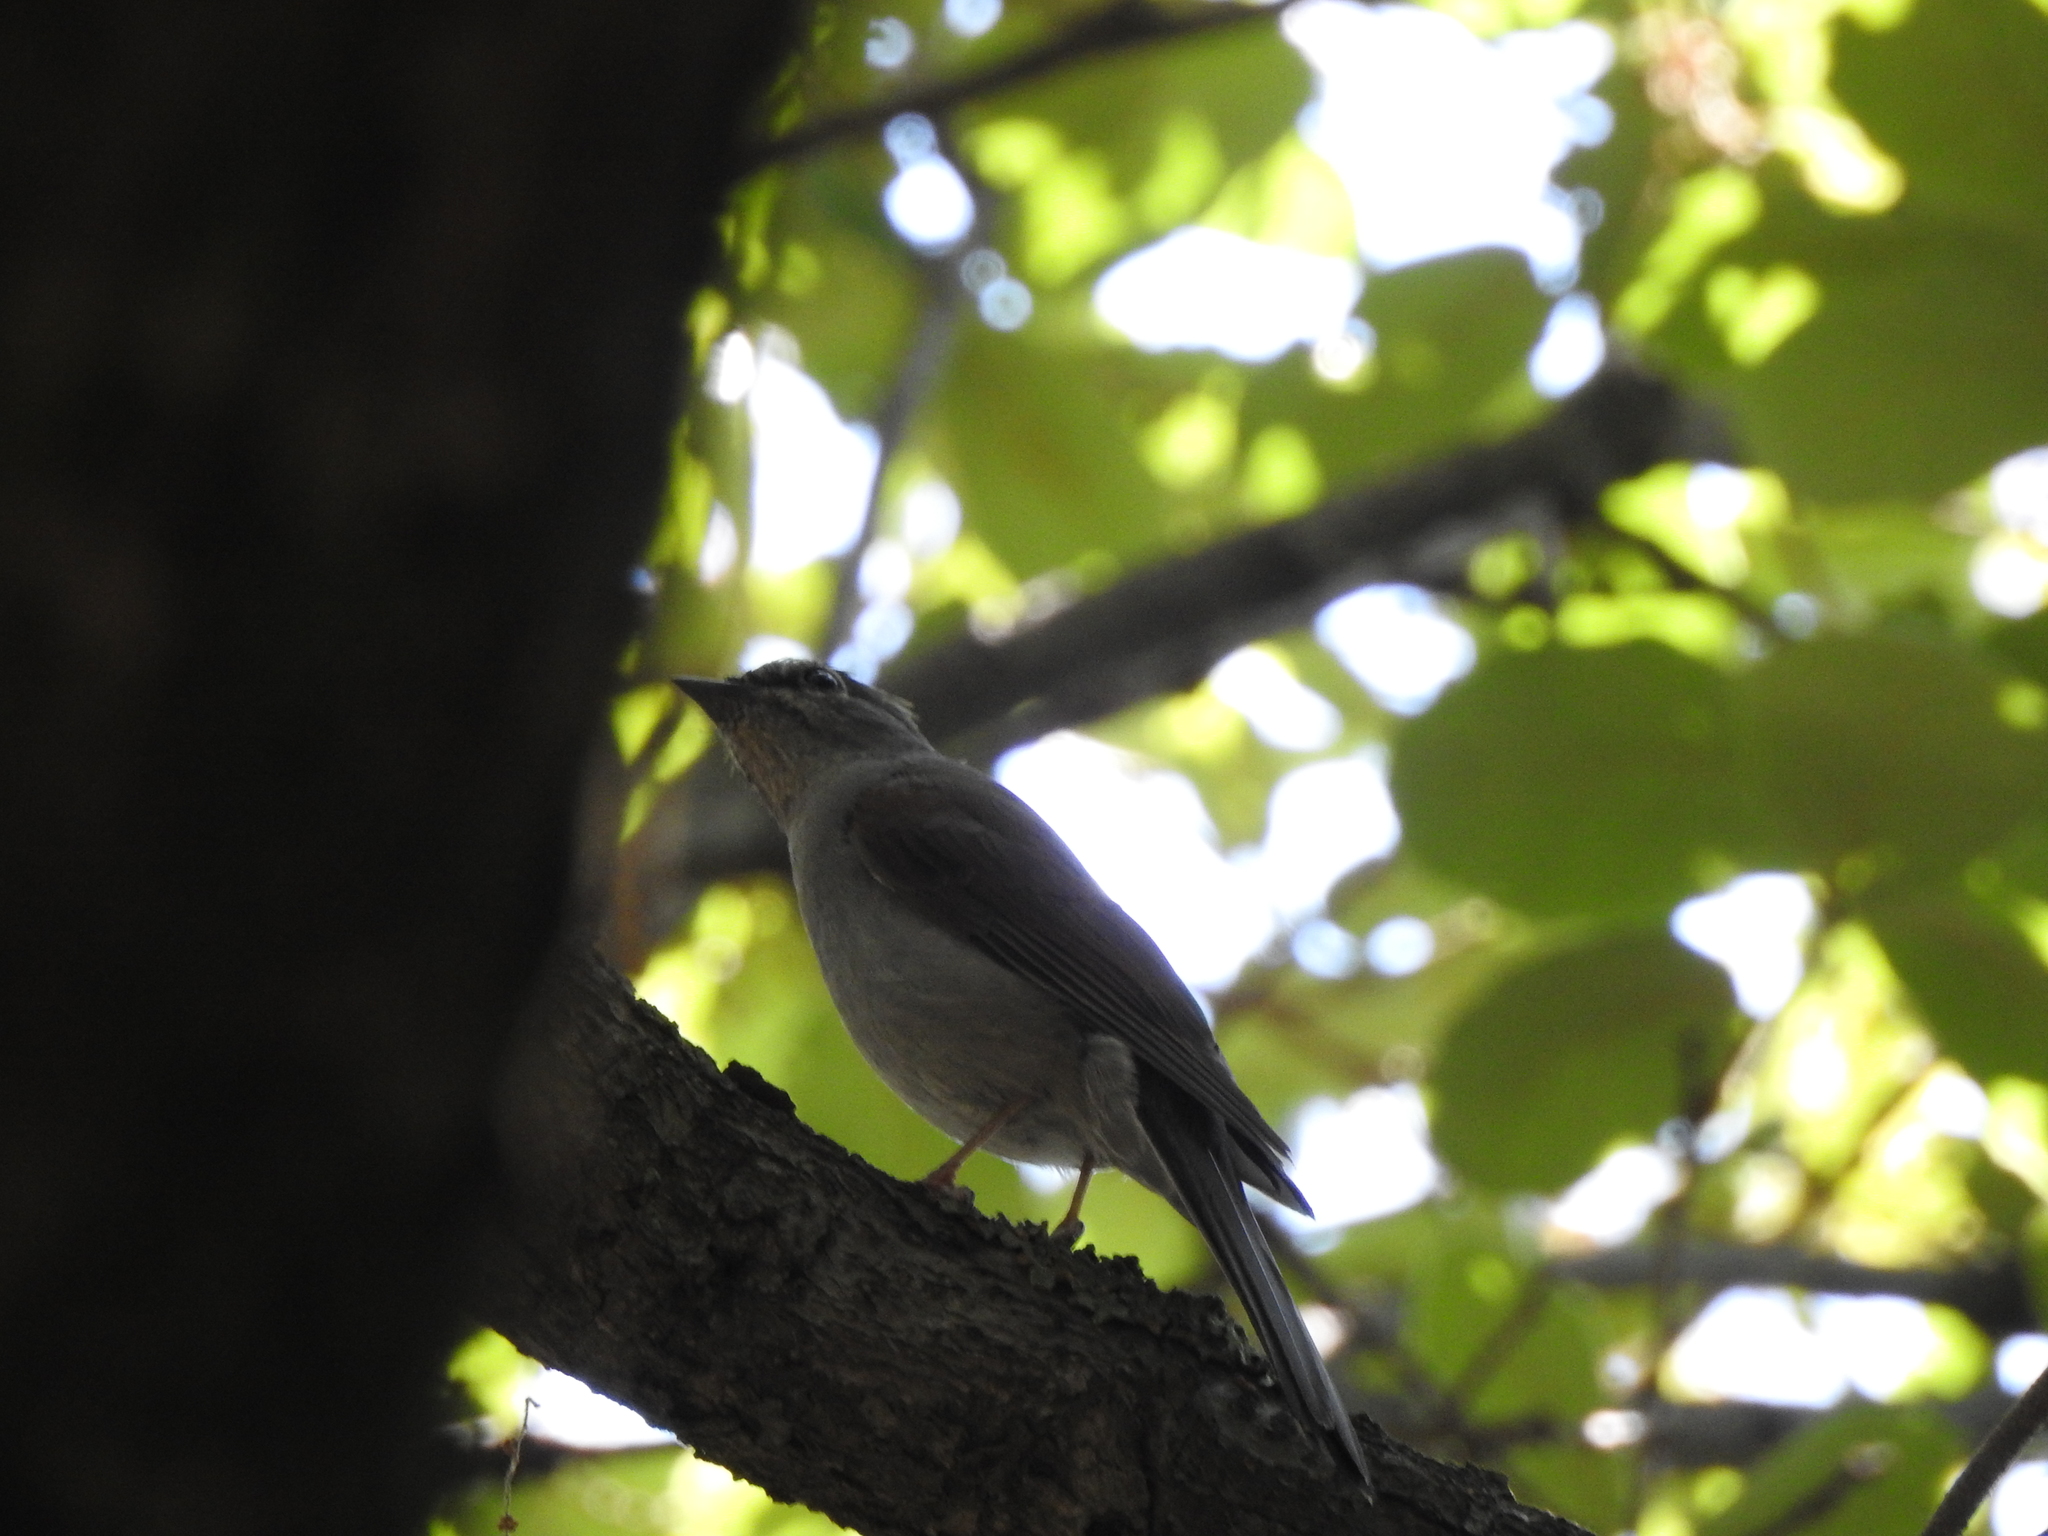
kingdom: Animalia
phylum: Chordata
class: Aves
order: Passeriformes
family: Turdidae
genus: Myadestes
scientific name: Myadestes occidentalis
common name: Brown-backed solitaire
